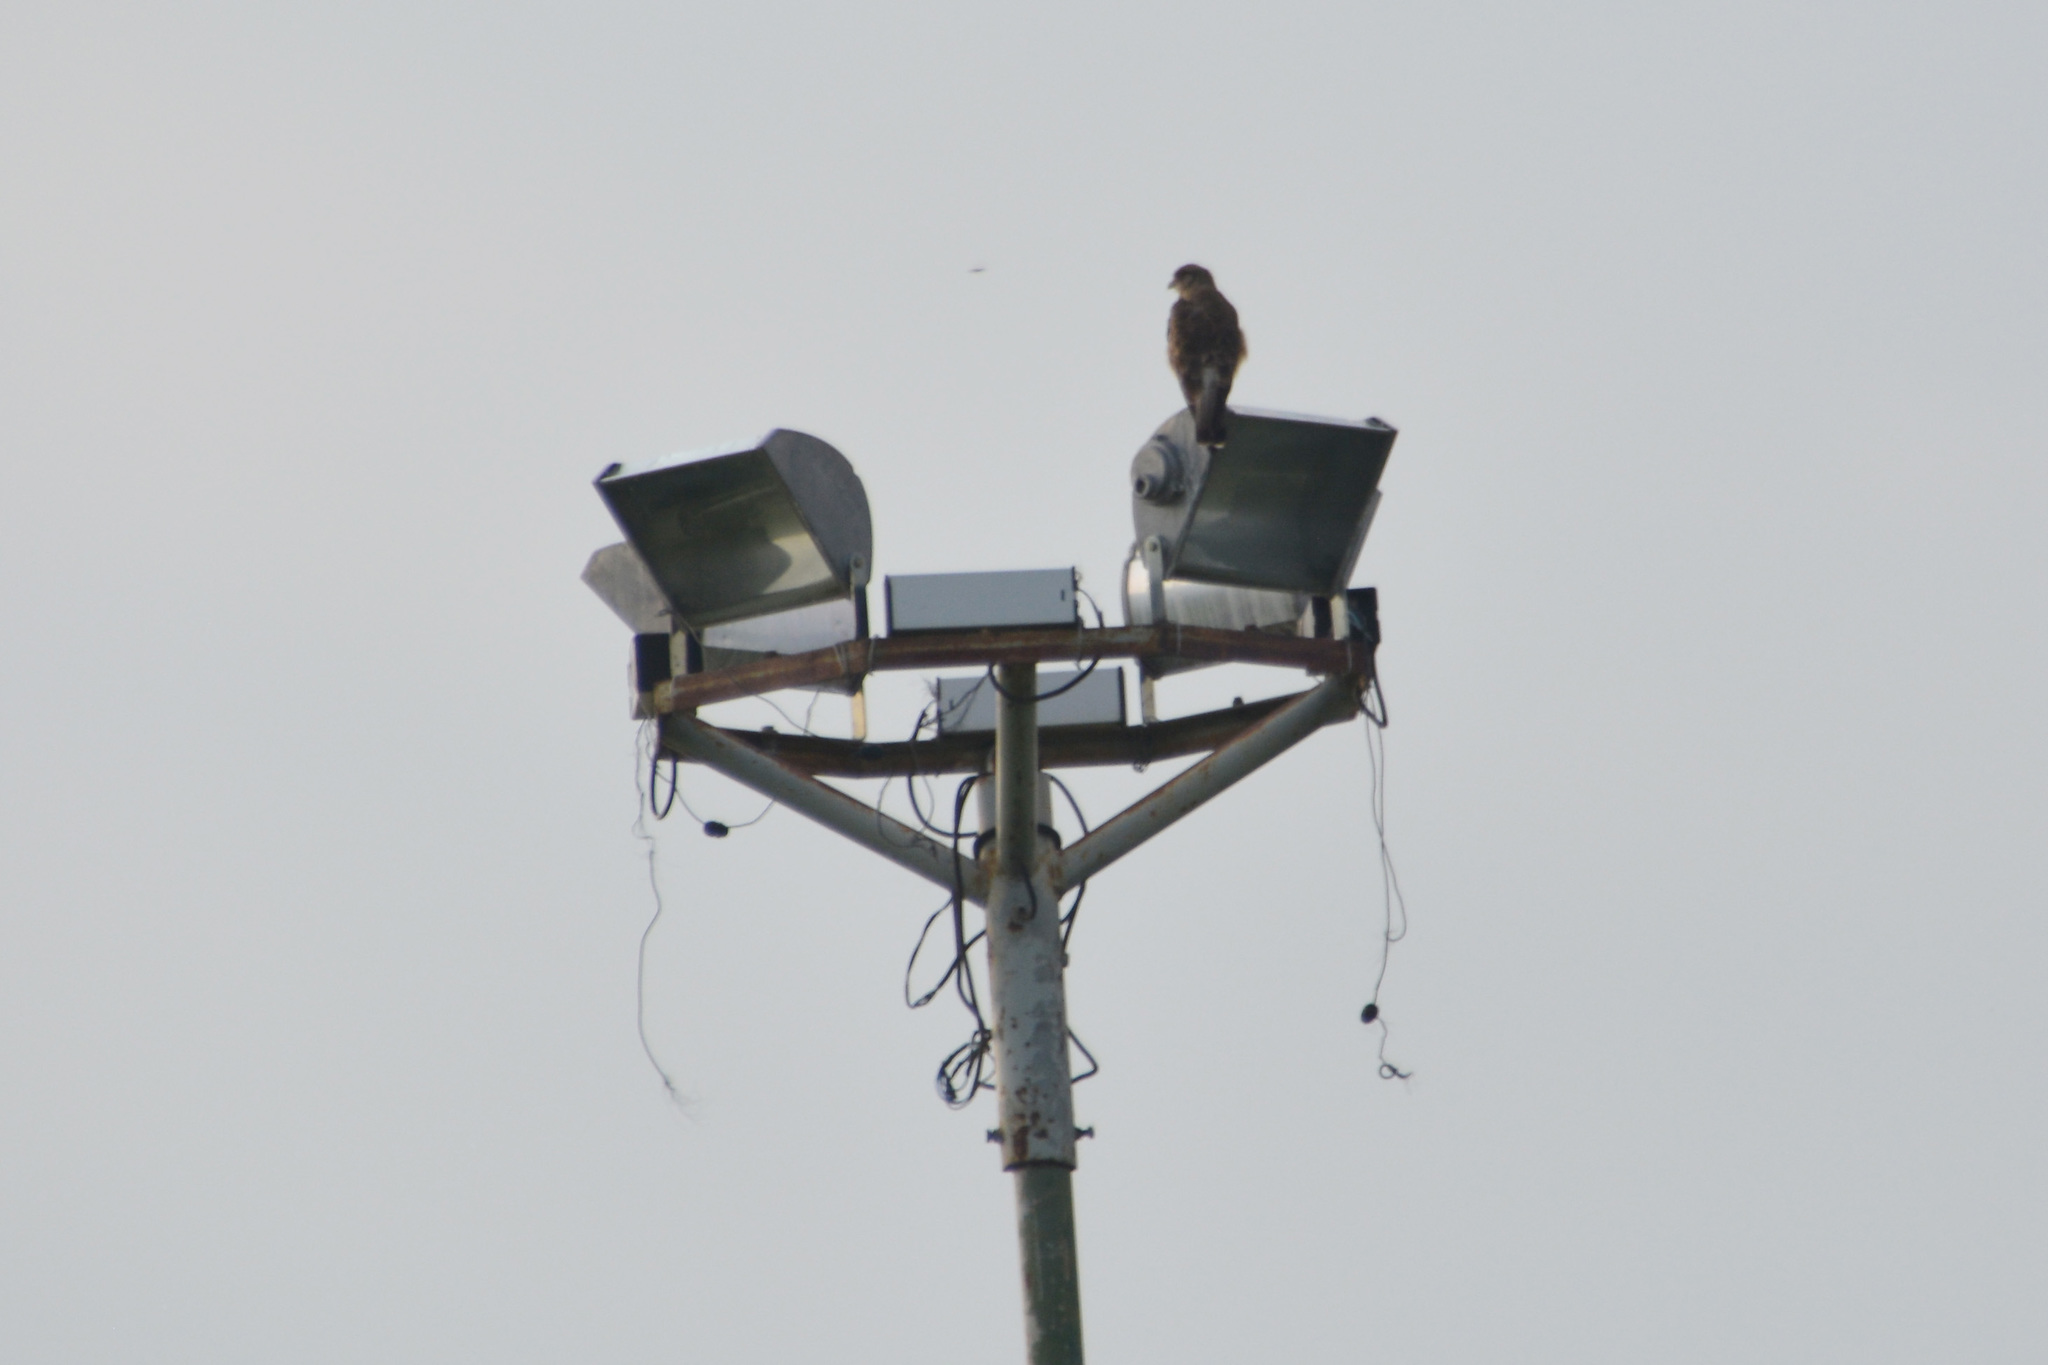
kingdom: Animalia
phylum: Chordata
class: Aves
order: Falconiformes
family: Falconidae
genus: Daptrius
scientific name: Daptrius
